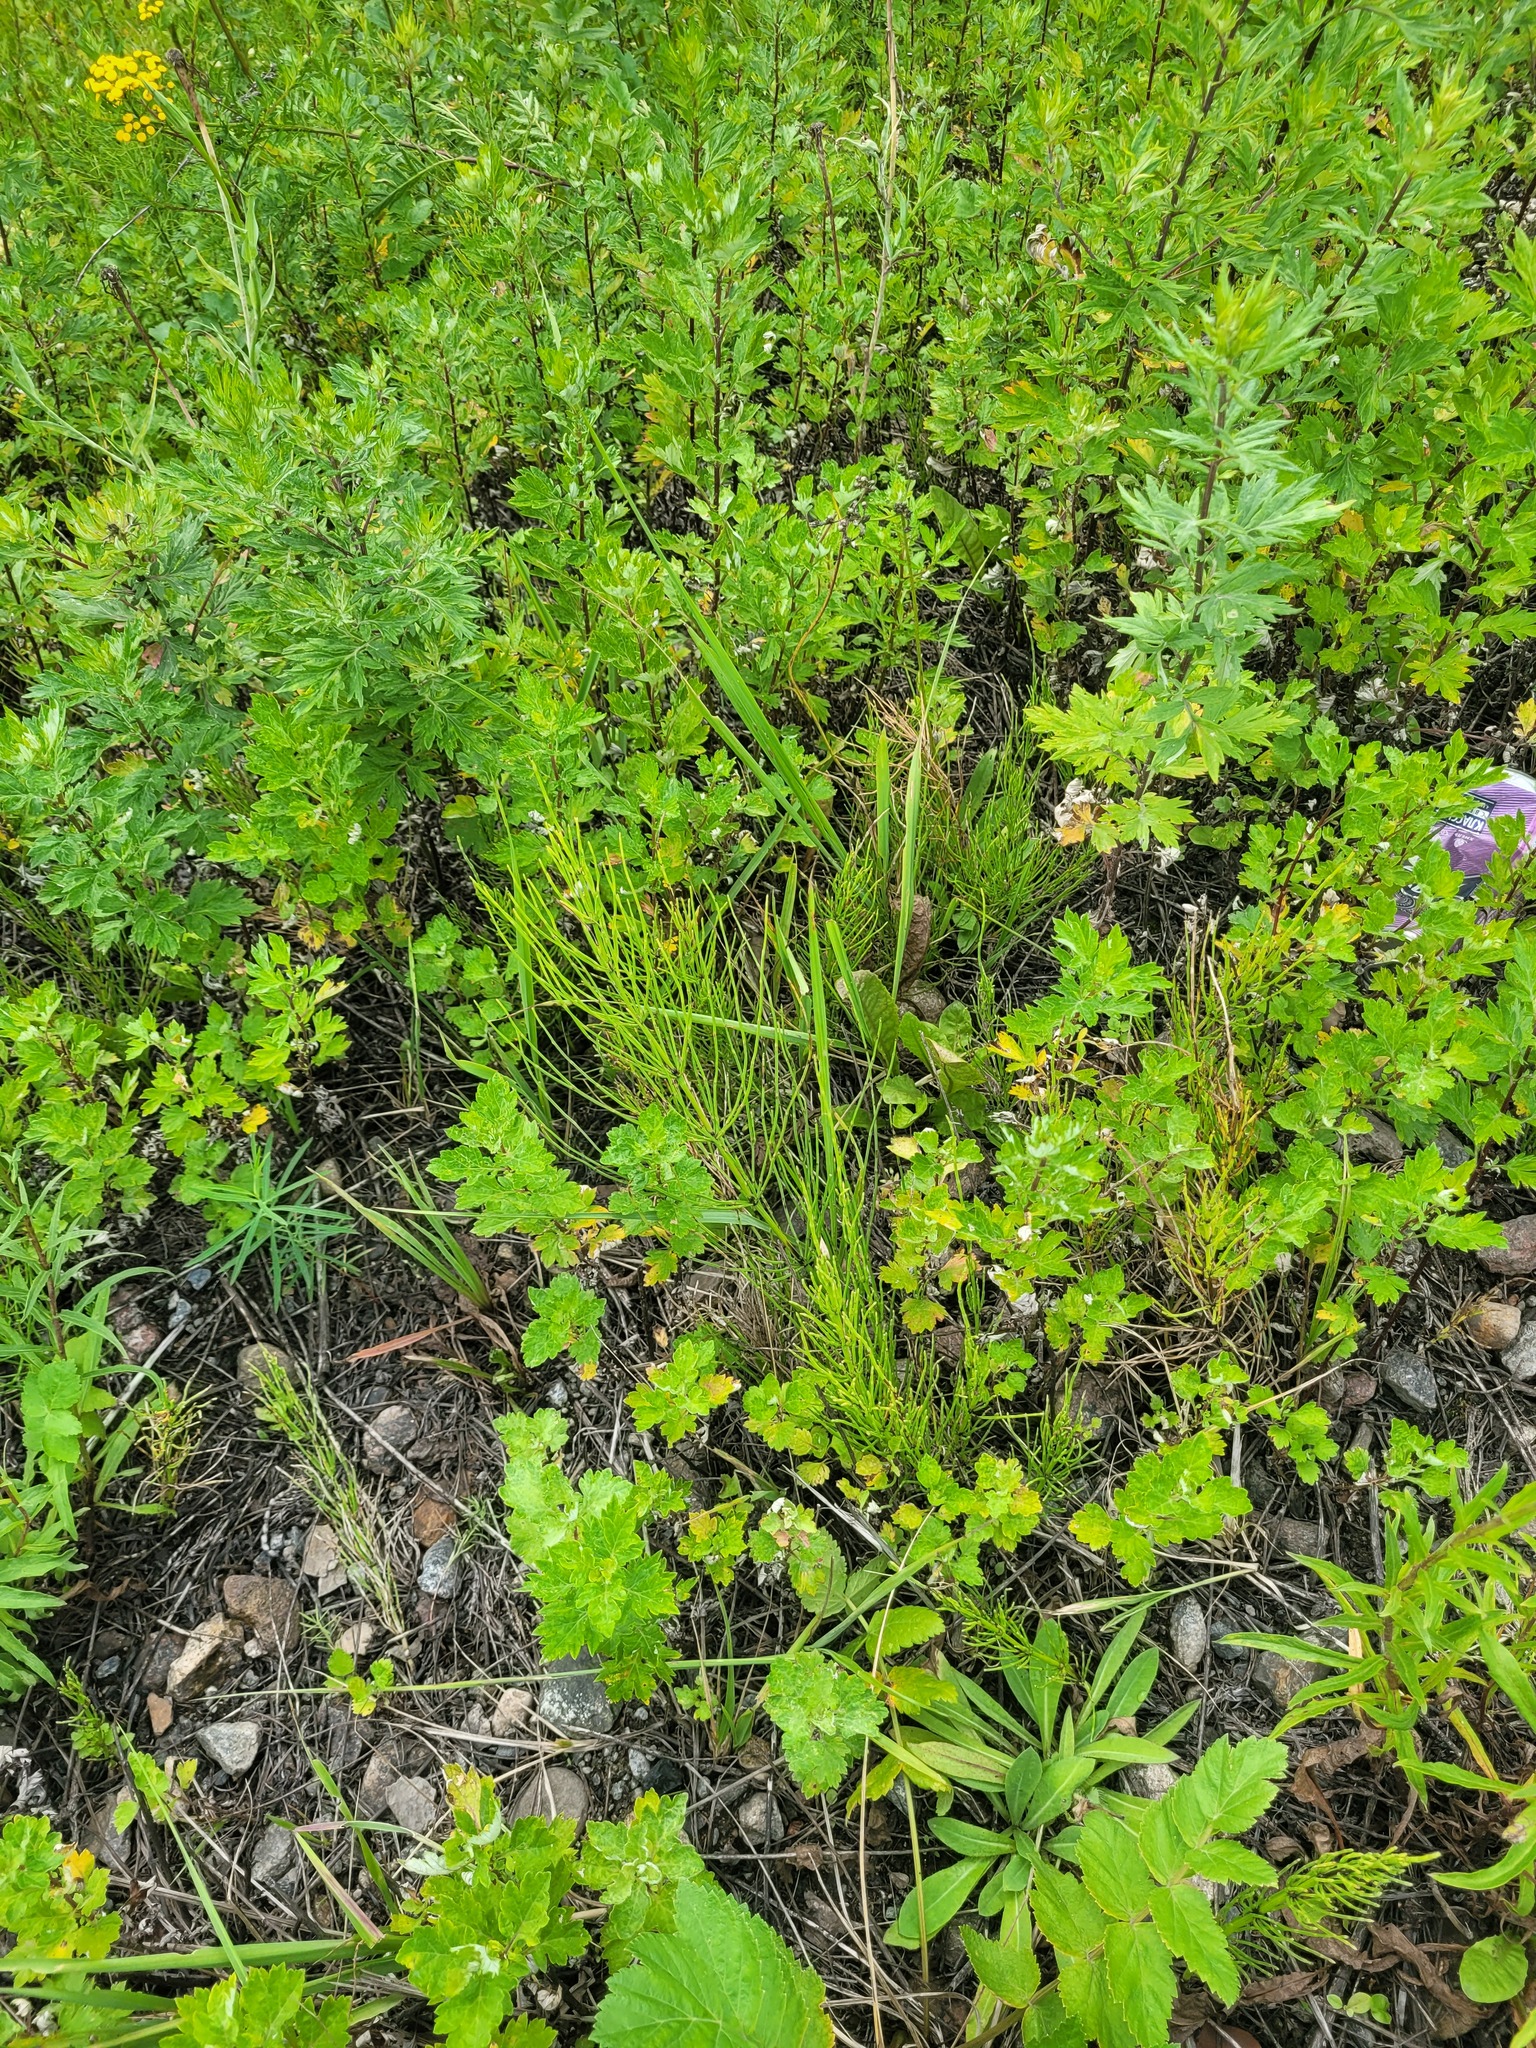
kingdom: Plantae
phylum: Tracheophyta
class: Polypodiopsida
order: Equisetales
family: Equisetaceae
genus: Equisetum
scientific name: Equisetum arvense
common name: Field horsetail
